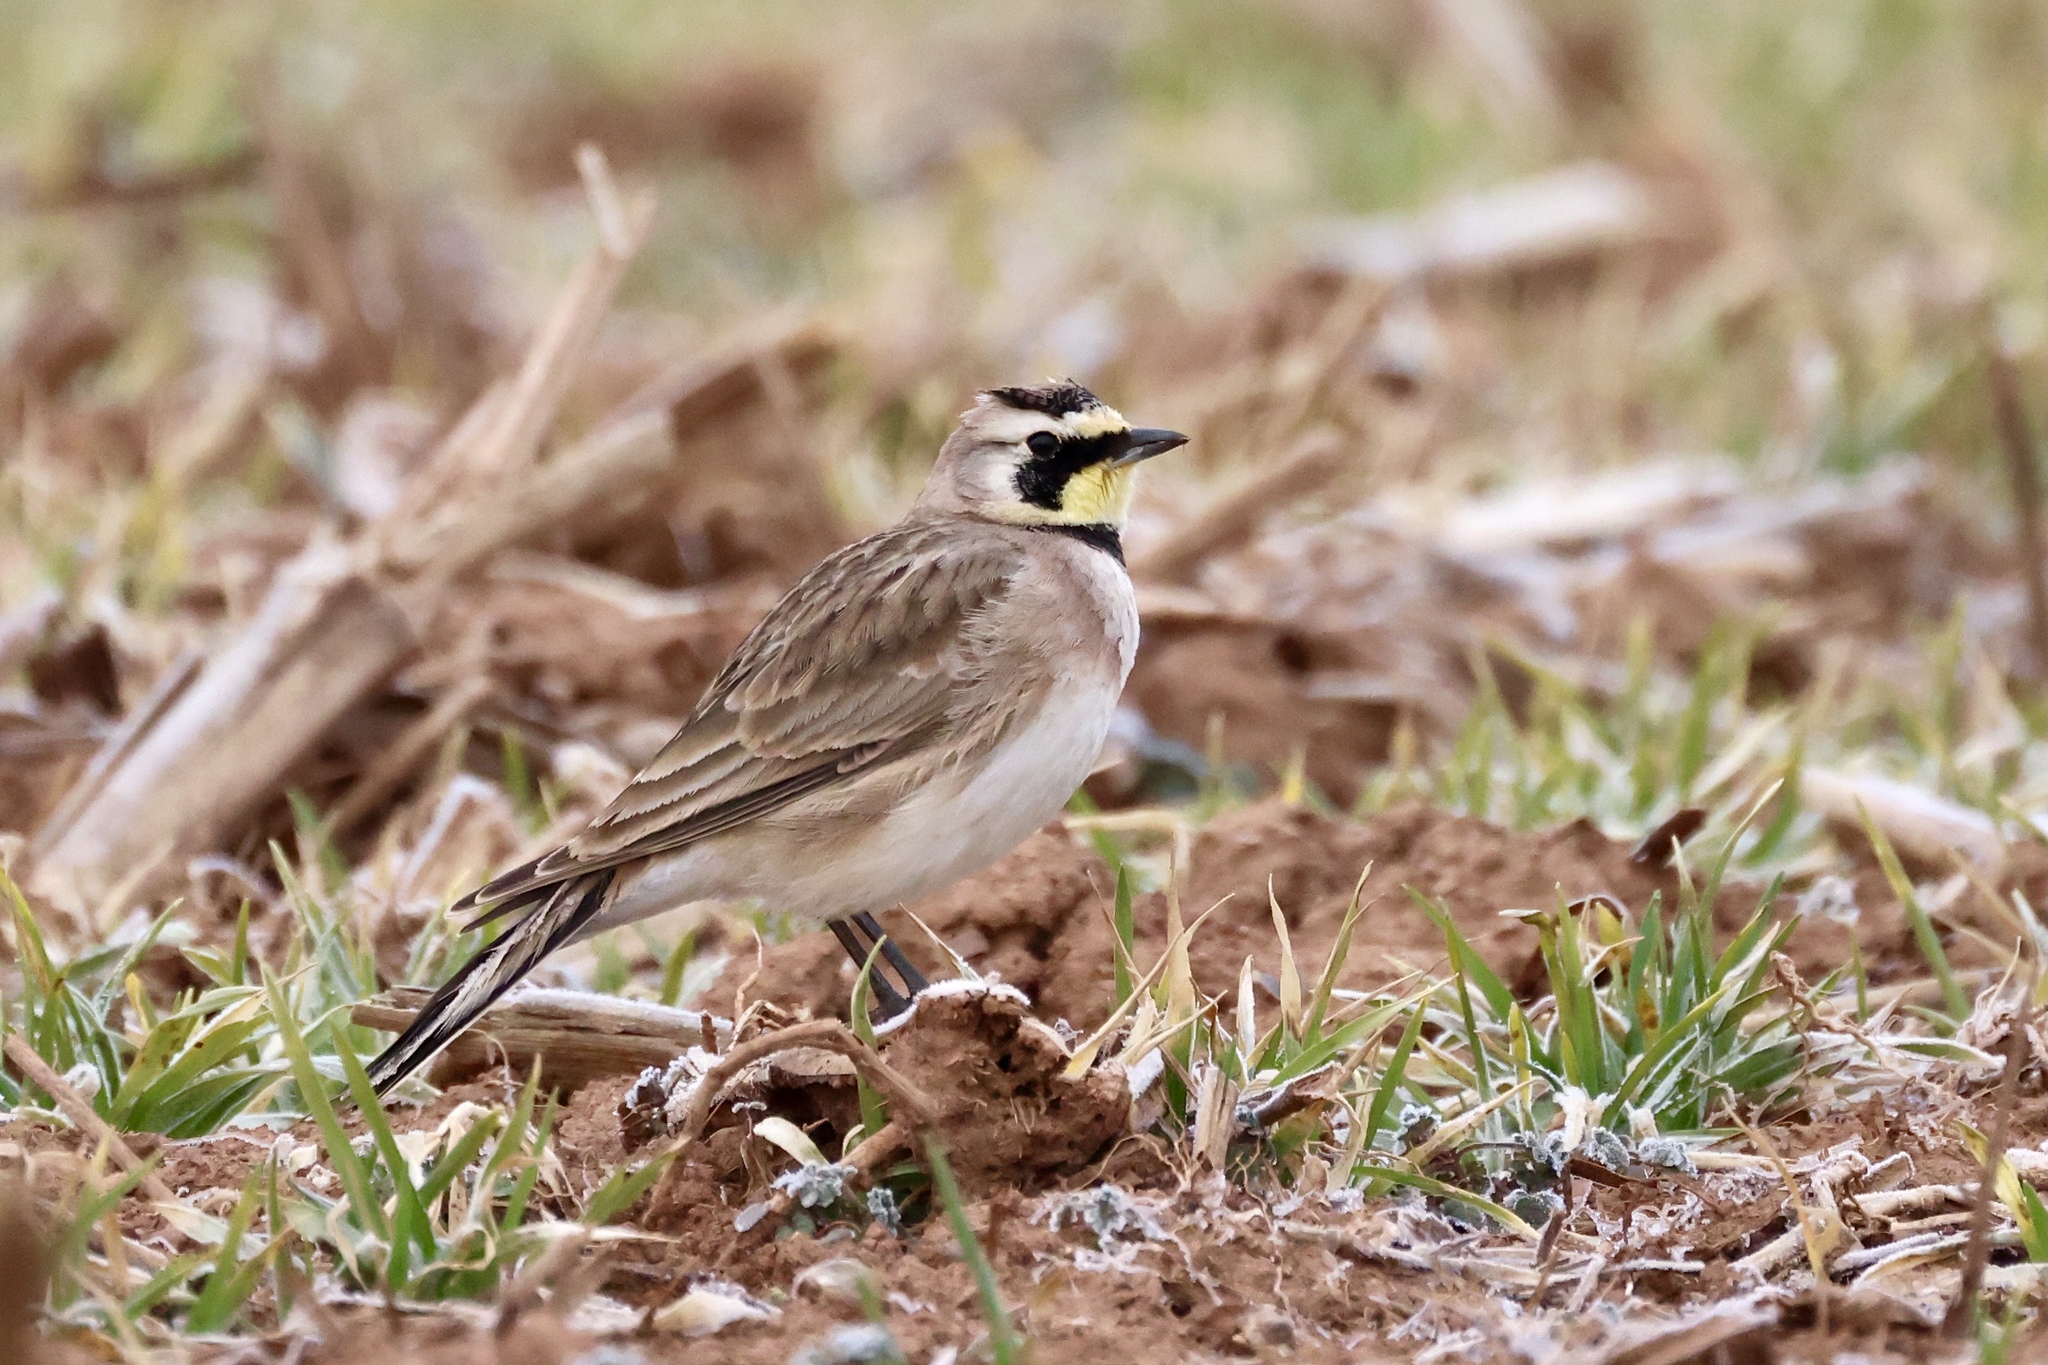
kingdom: Animalia
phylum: Chordata
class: Aves
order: Passeriformes
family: Alaudidae
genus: Eremophila
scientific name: Eremophila alpestris
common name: Horned lark
